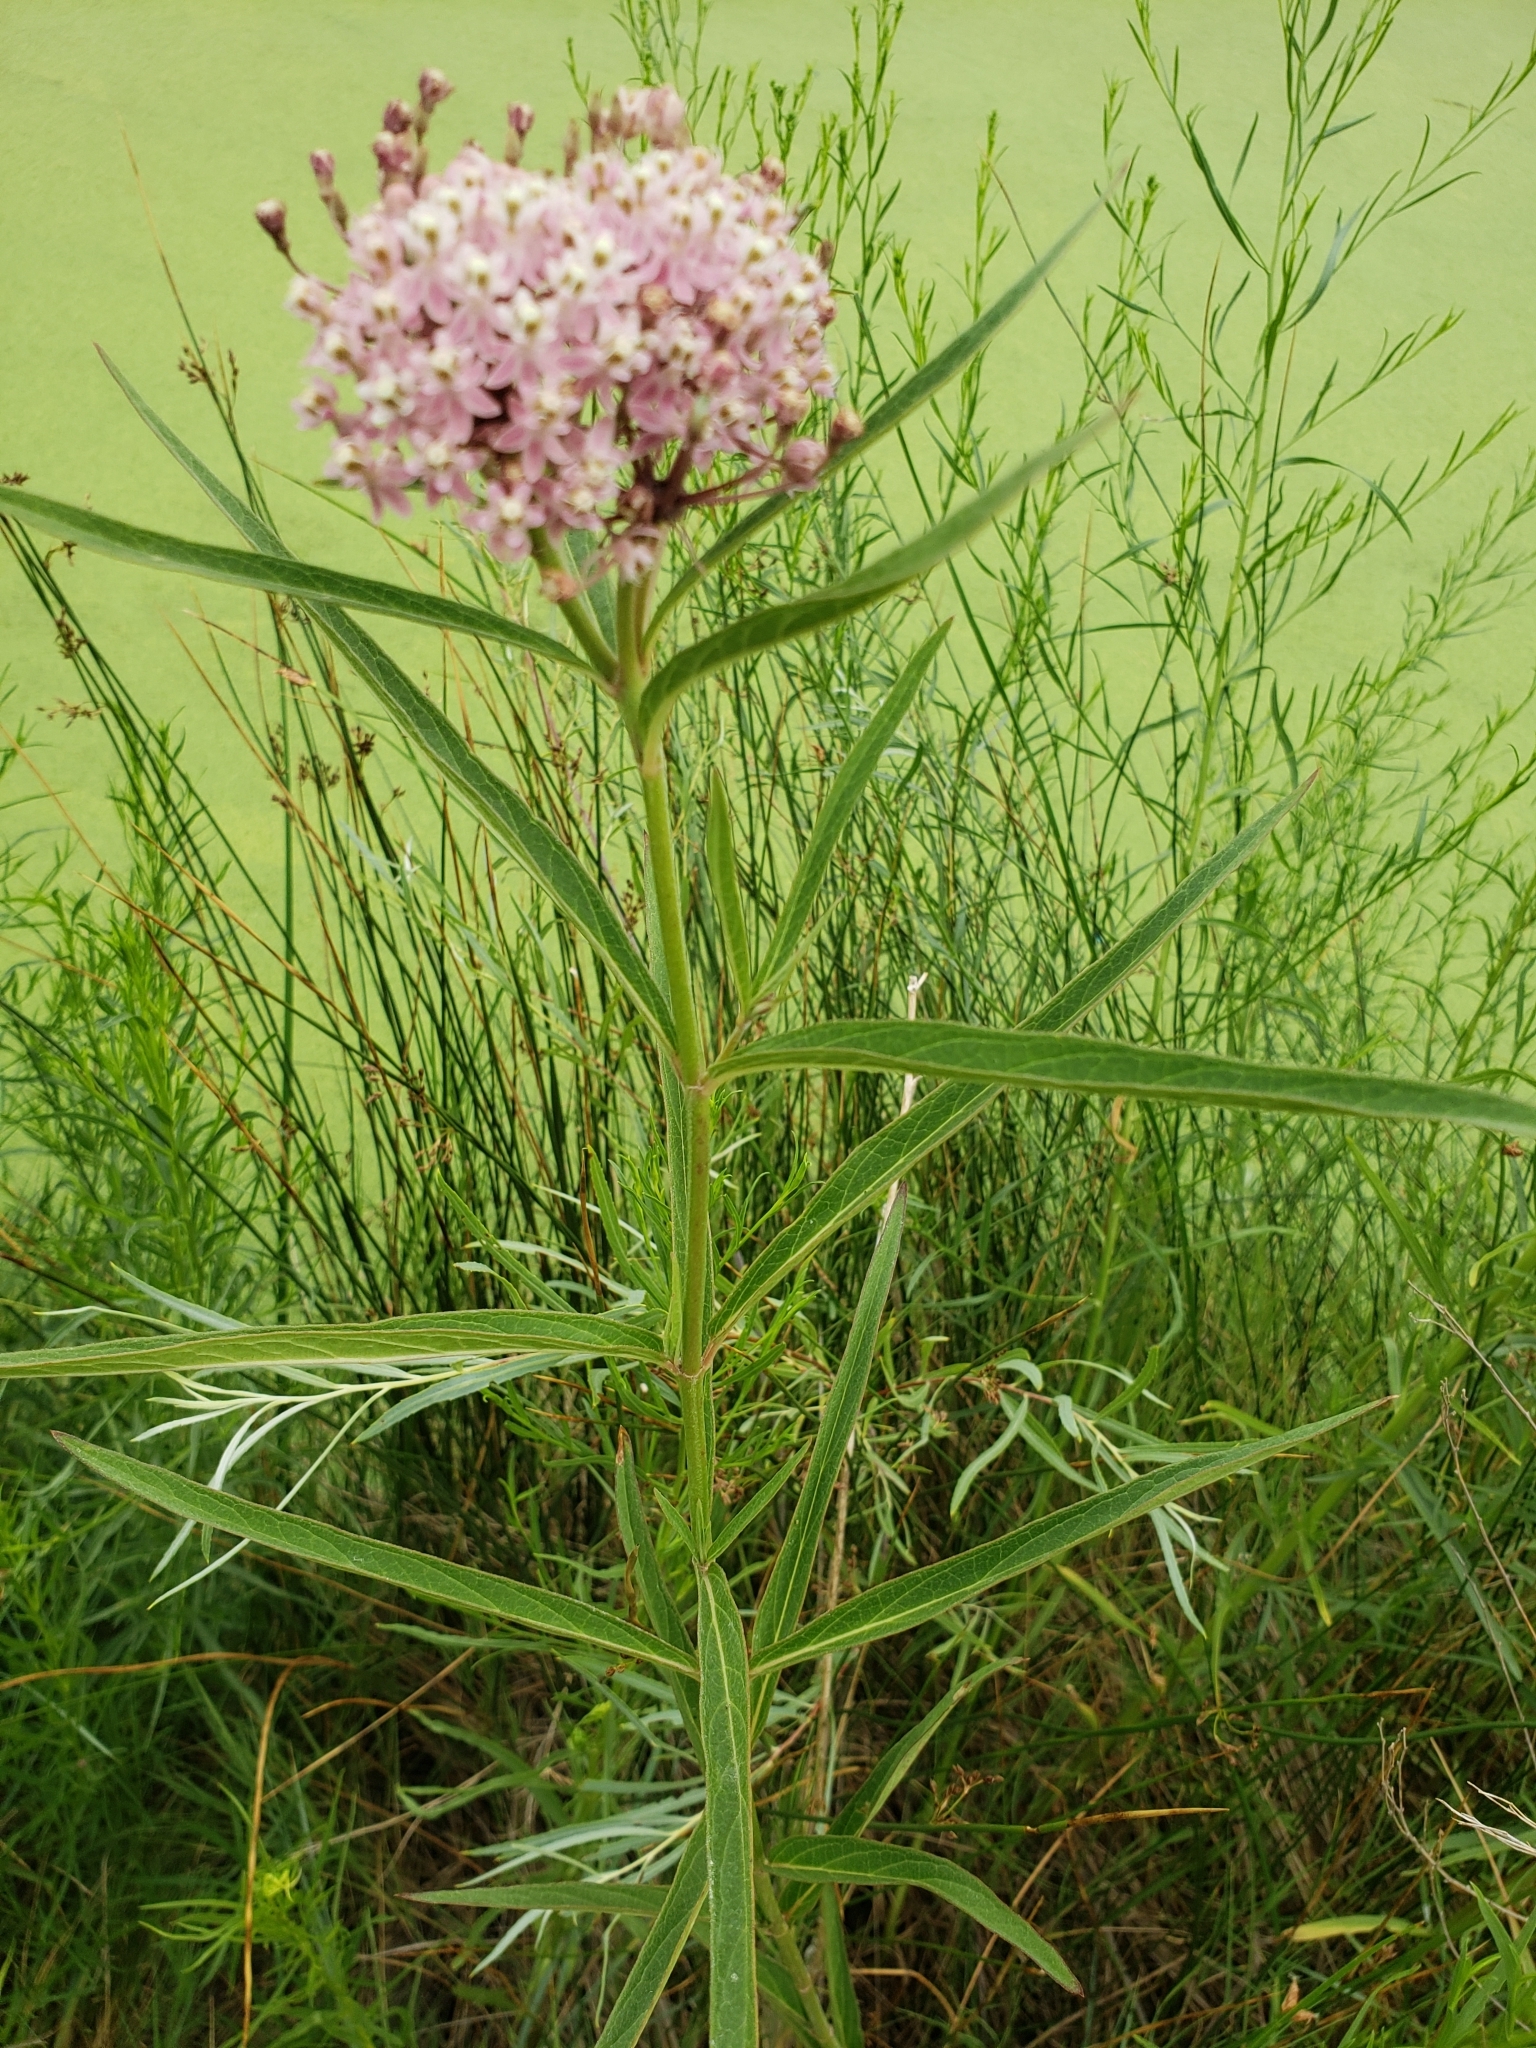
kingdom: Plantae
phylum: Tracheophyta
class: Magnoliopsida
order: Gentianales
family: Apocynaceae
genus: Asclepias
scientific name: Asclepias incarnata
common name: Swamp milkweed
